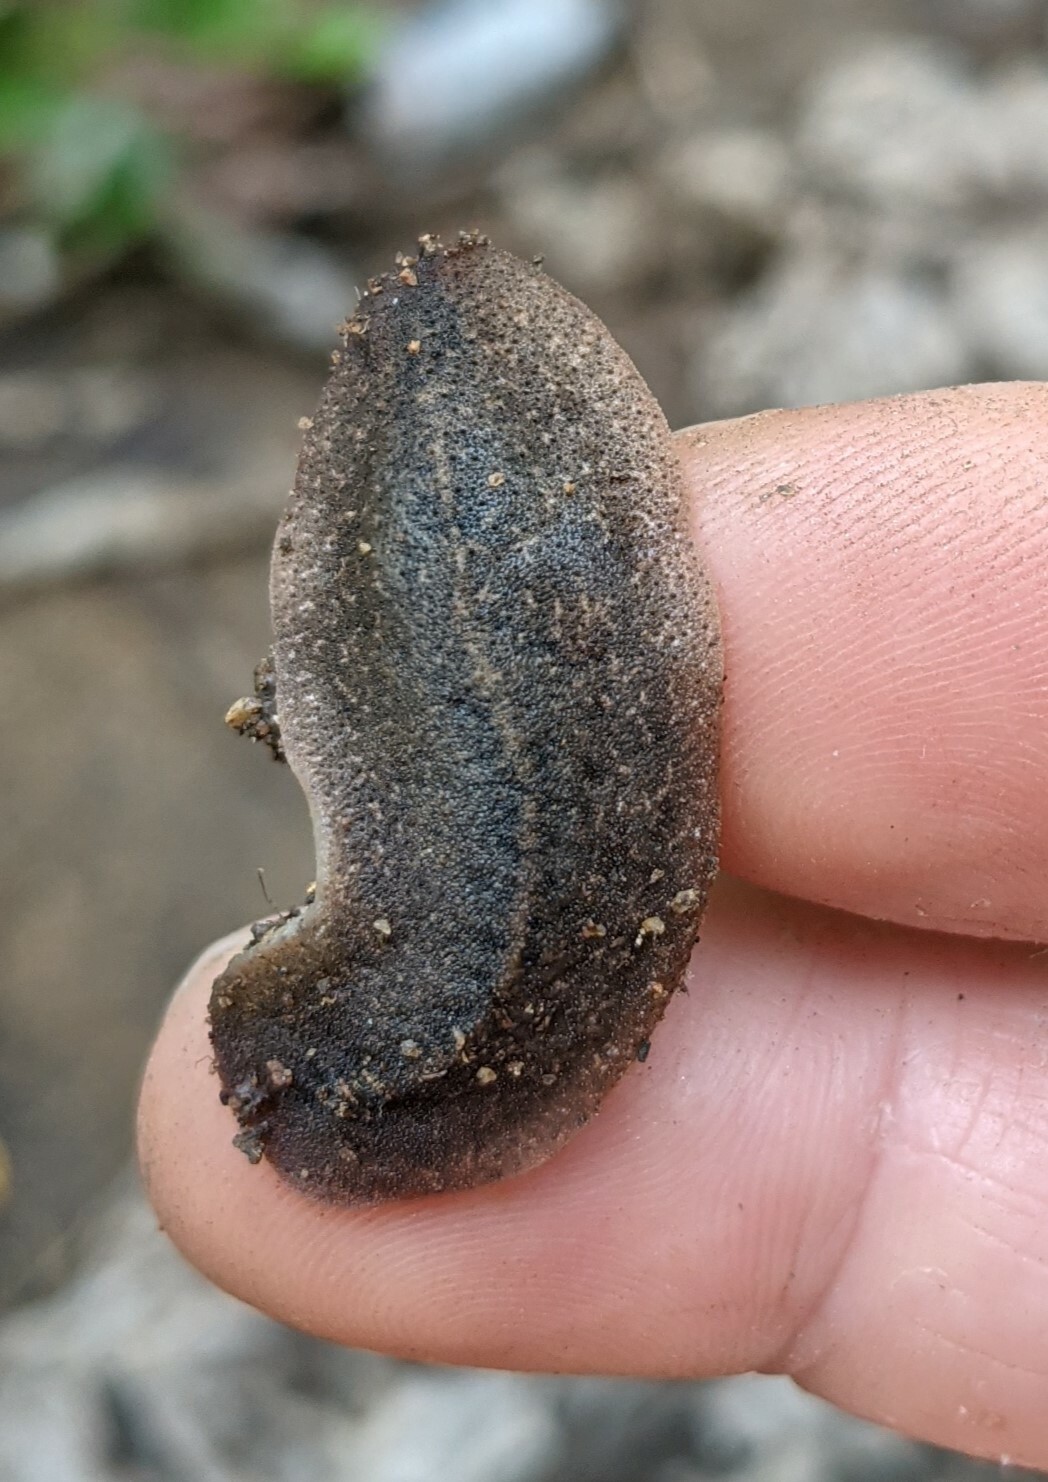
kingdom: Animalia
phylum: Mollusca
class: Gastropoda
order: Systellommatophora
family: Veronicellidae
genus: Diplosolenodes
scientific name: Diplosolenodes occidentalis
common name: Spotted leatherleaf
